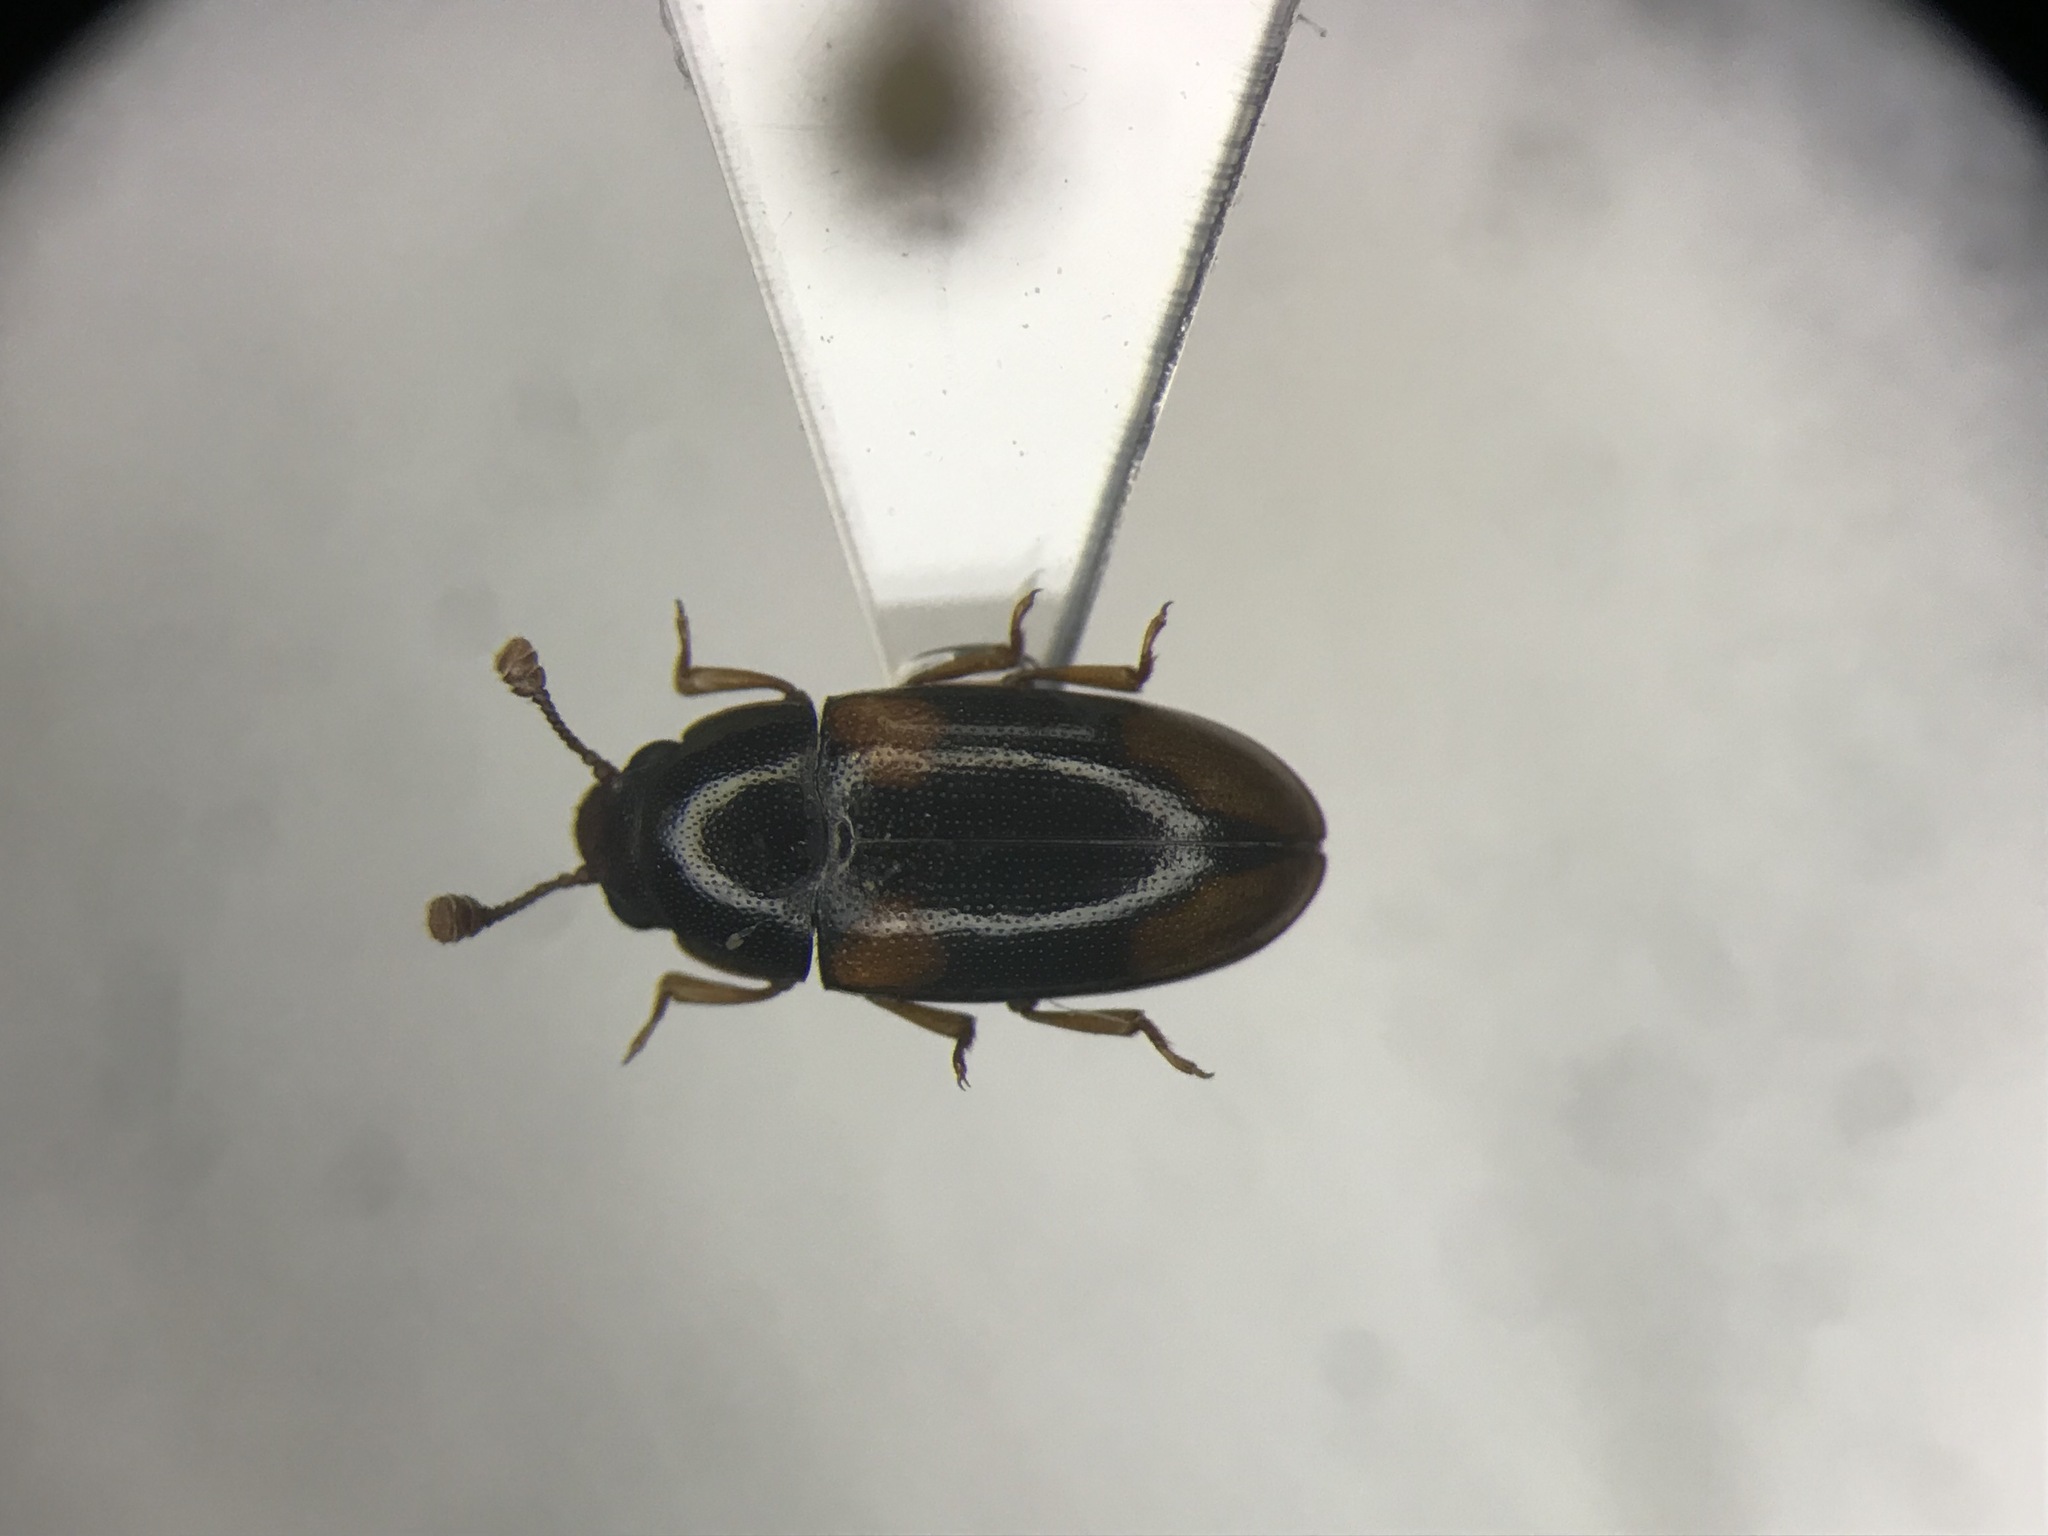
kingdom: Animalia
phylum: Arthropoda
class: Insecta
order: Coleoptera
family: Erotylidae
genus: Dacne
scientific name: Dacne quadrimaculata
